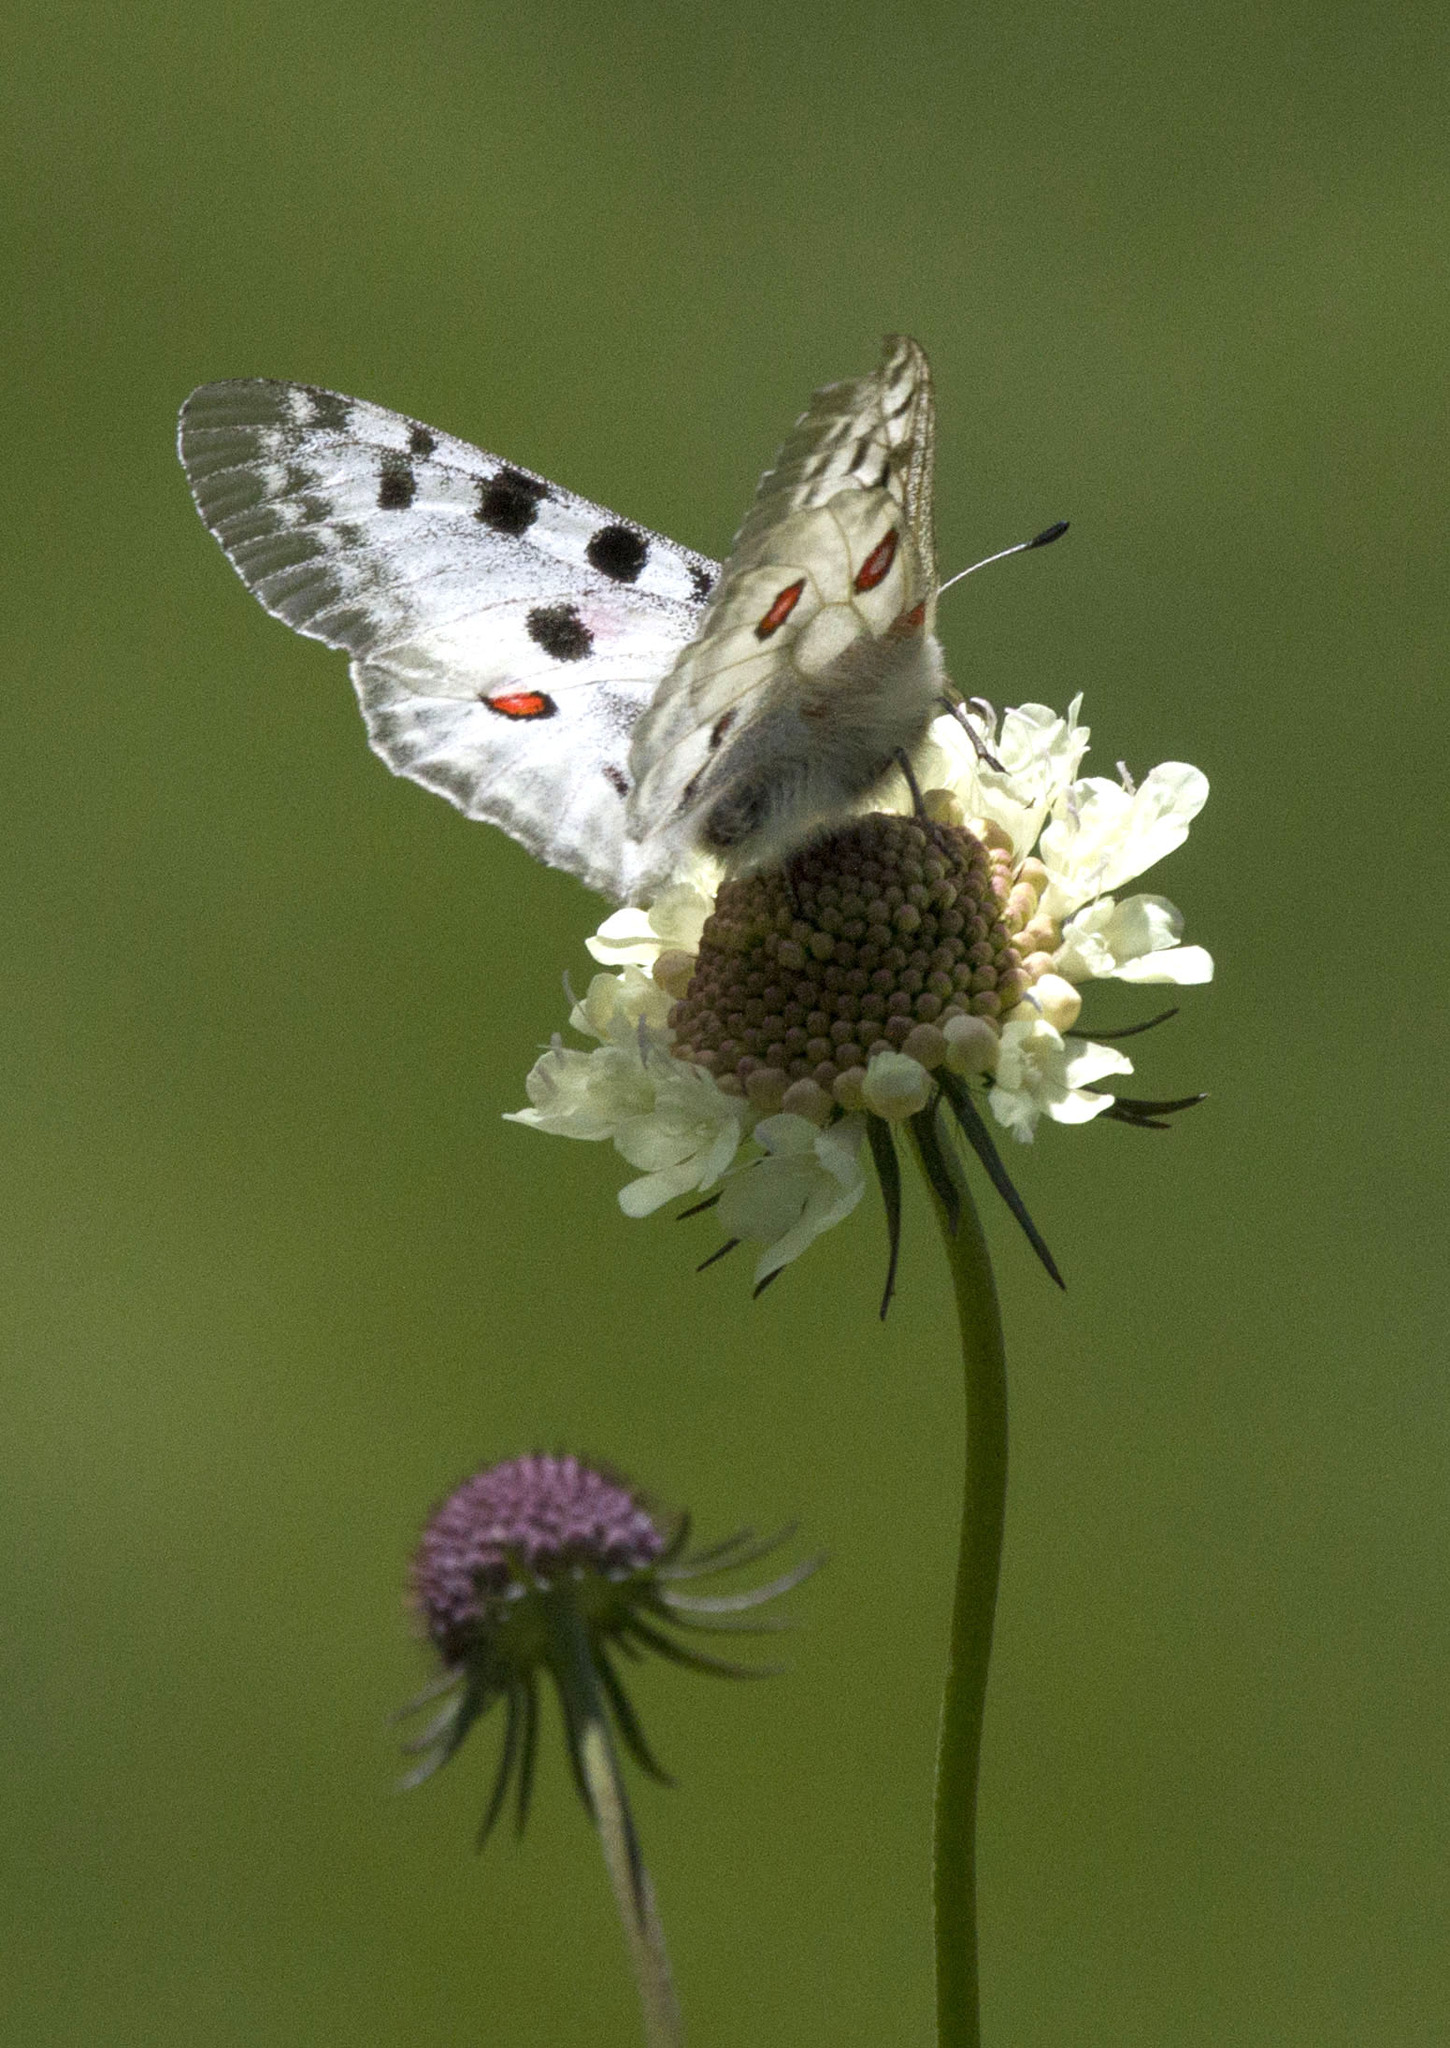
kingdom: Animalia
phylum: Arthropoda
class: Insecta
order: Lepidoptera
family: Papilionidae
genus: Parnassius
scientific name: Parnassius apollo
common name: Apollo
